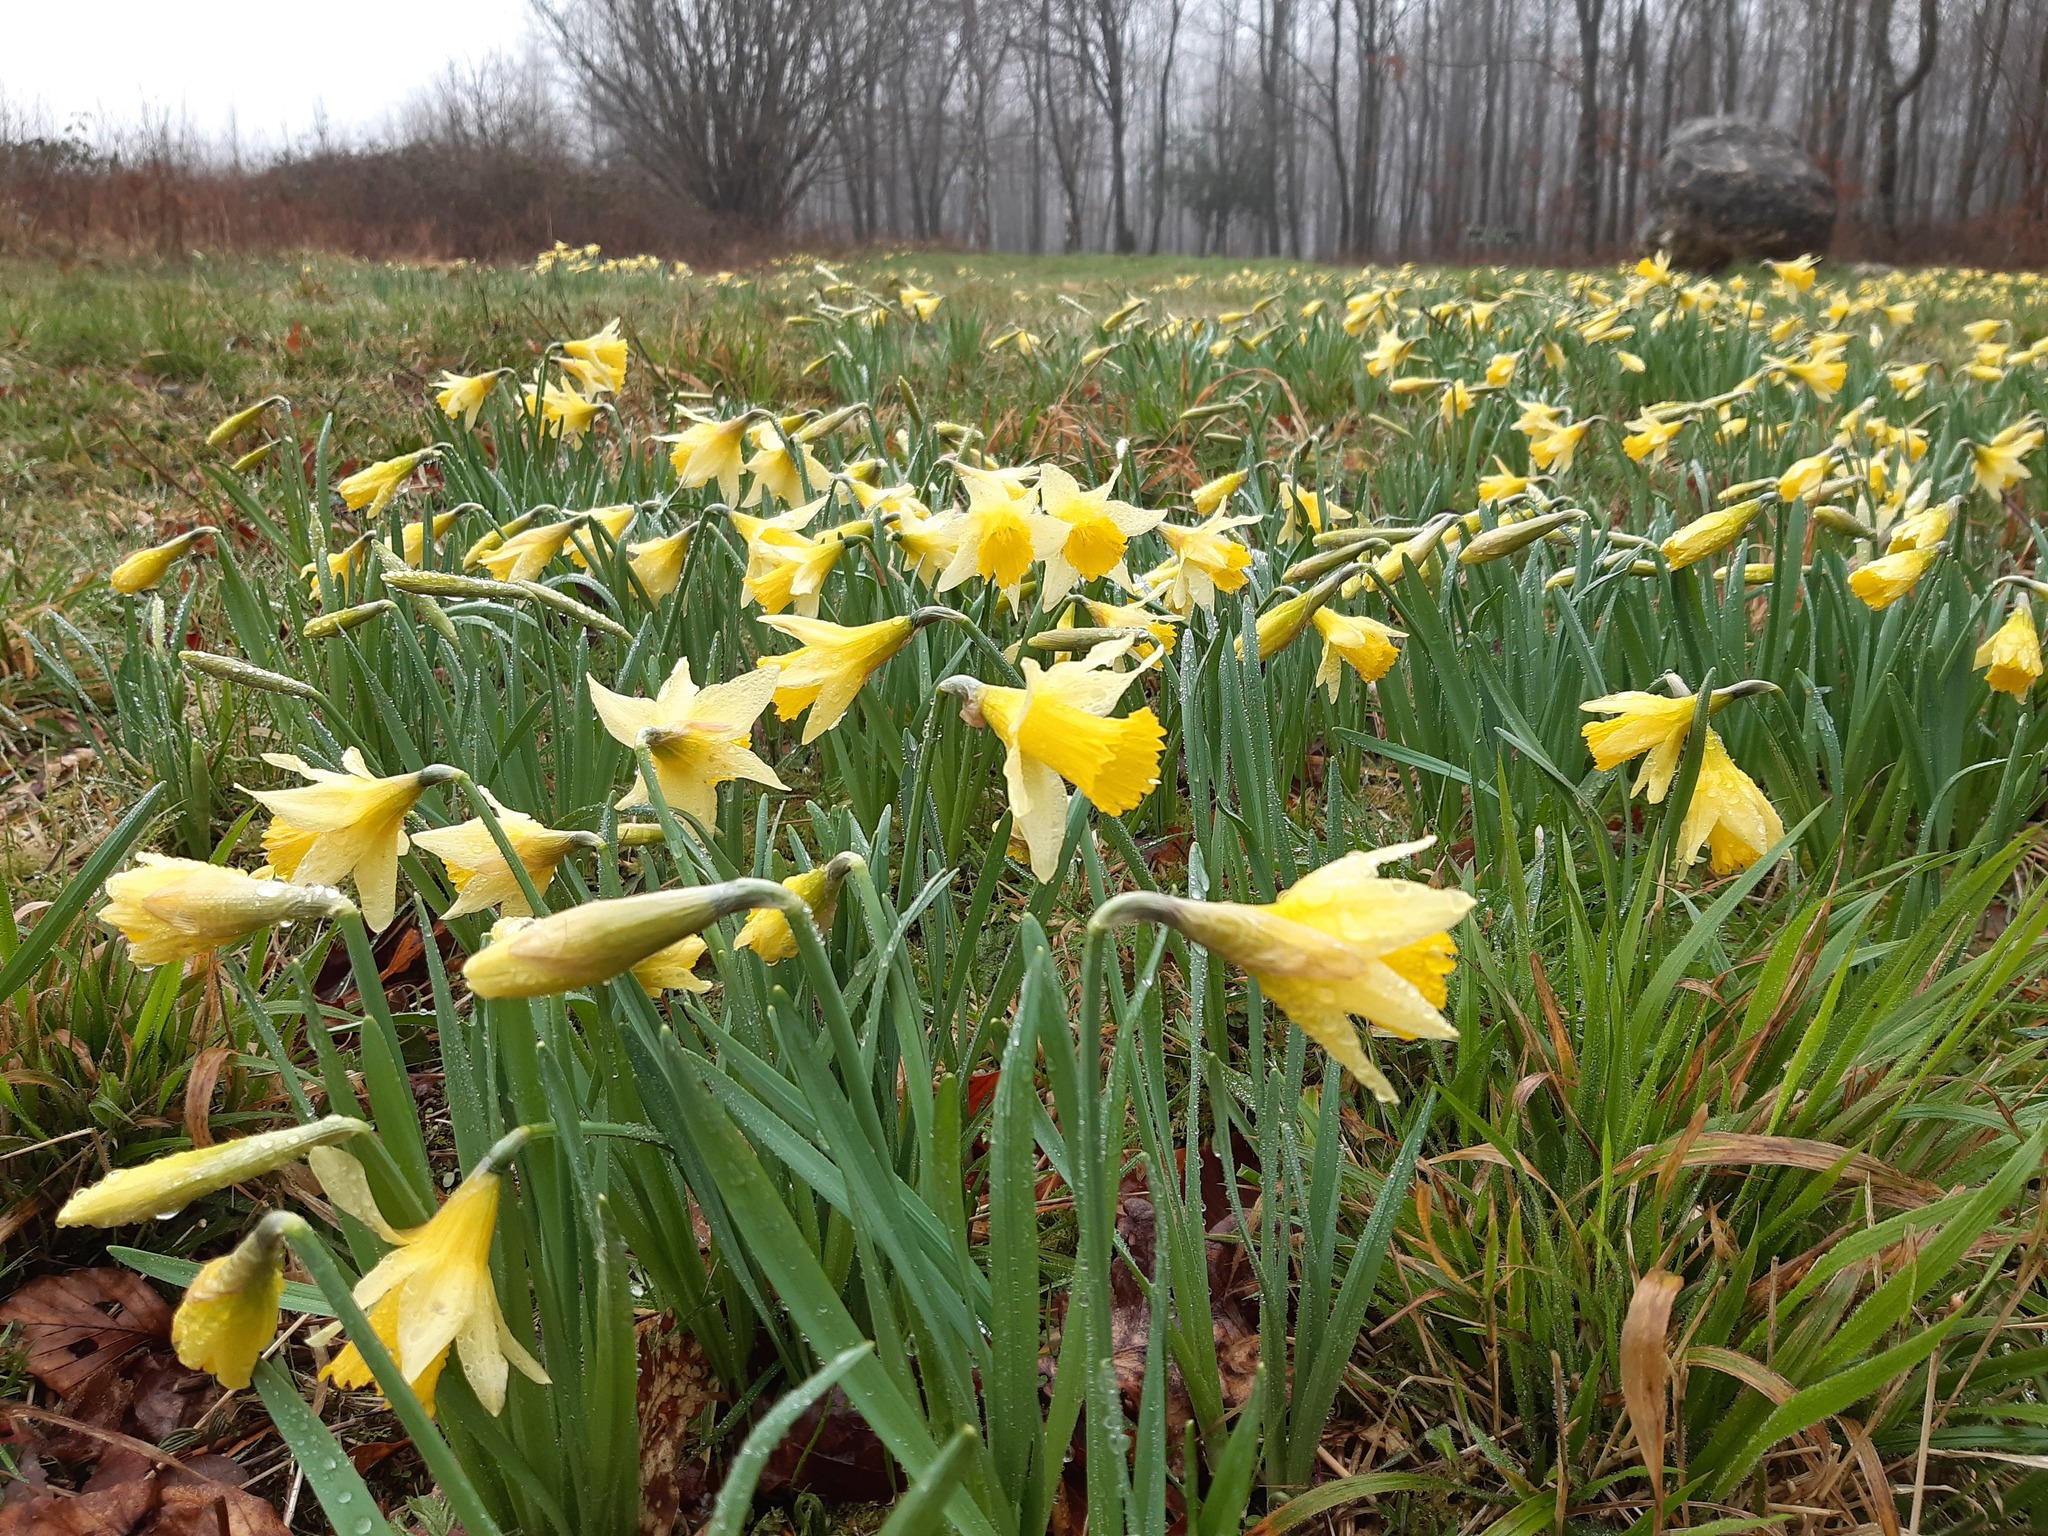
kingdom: Plantae
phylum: Tracheophyta
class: Liliopsida
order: Asparagales
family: Amaryllidaceae
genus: Narcissus
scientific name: Narcissus pseudonarcissus
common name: Daffodil
